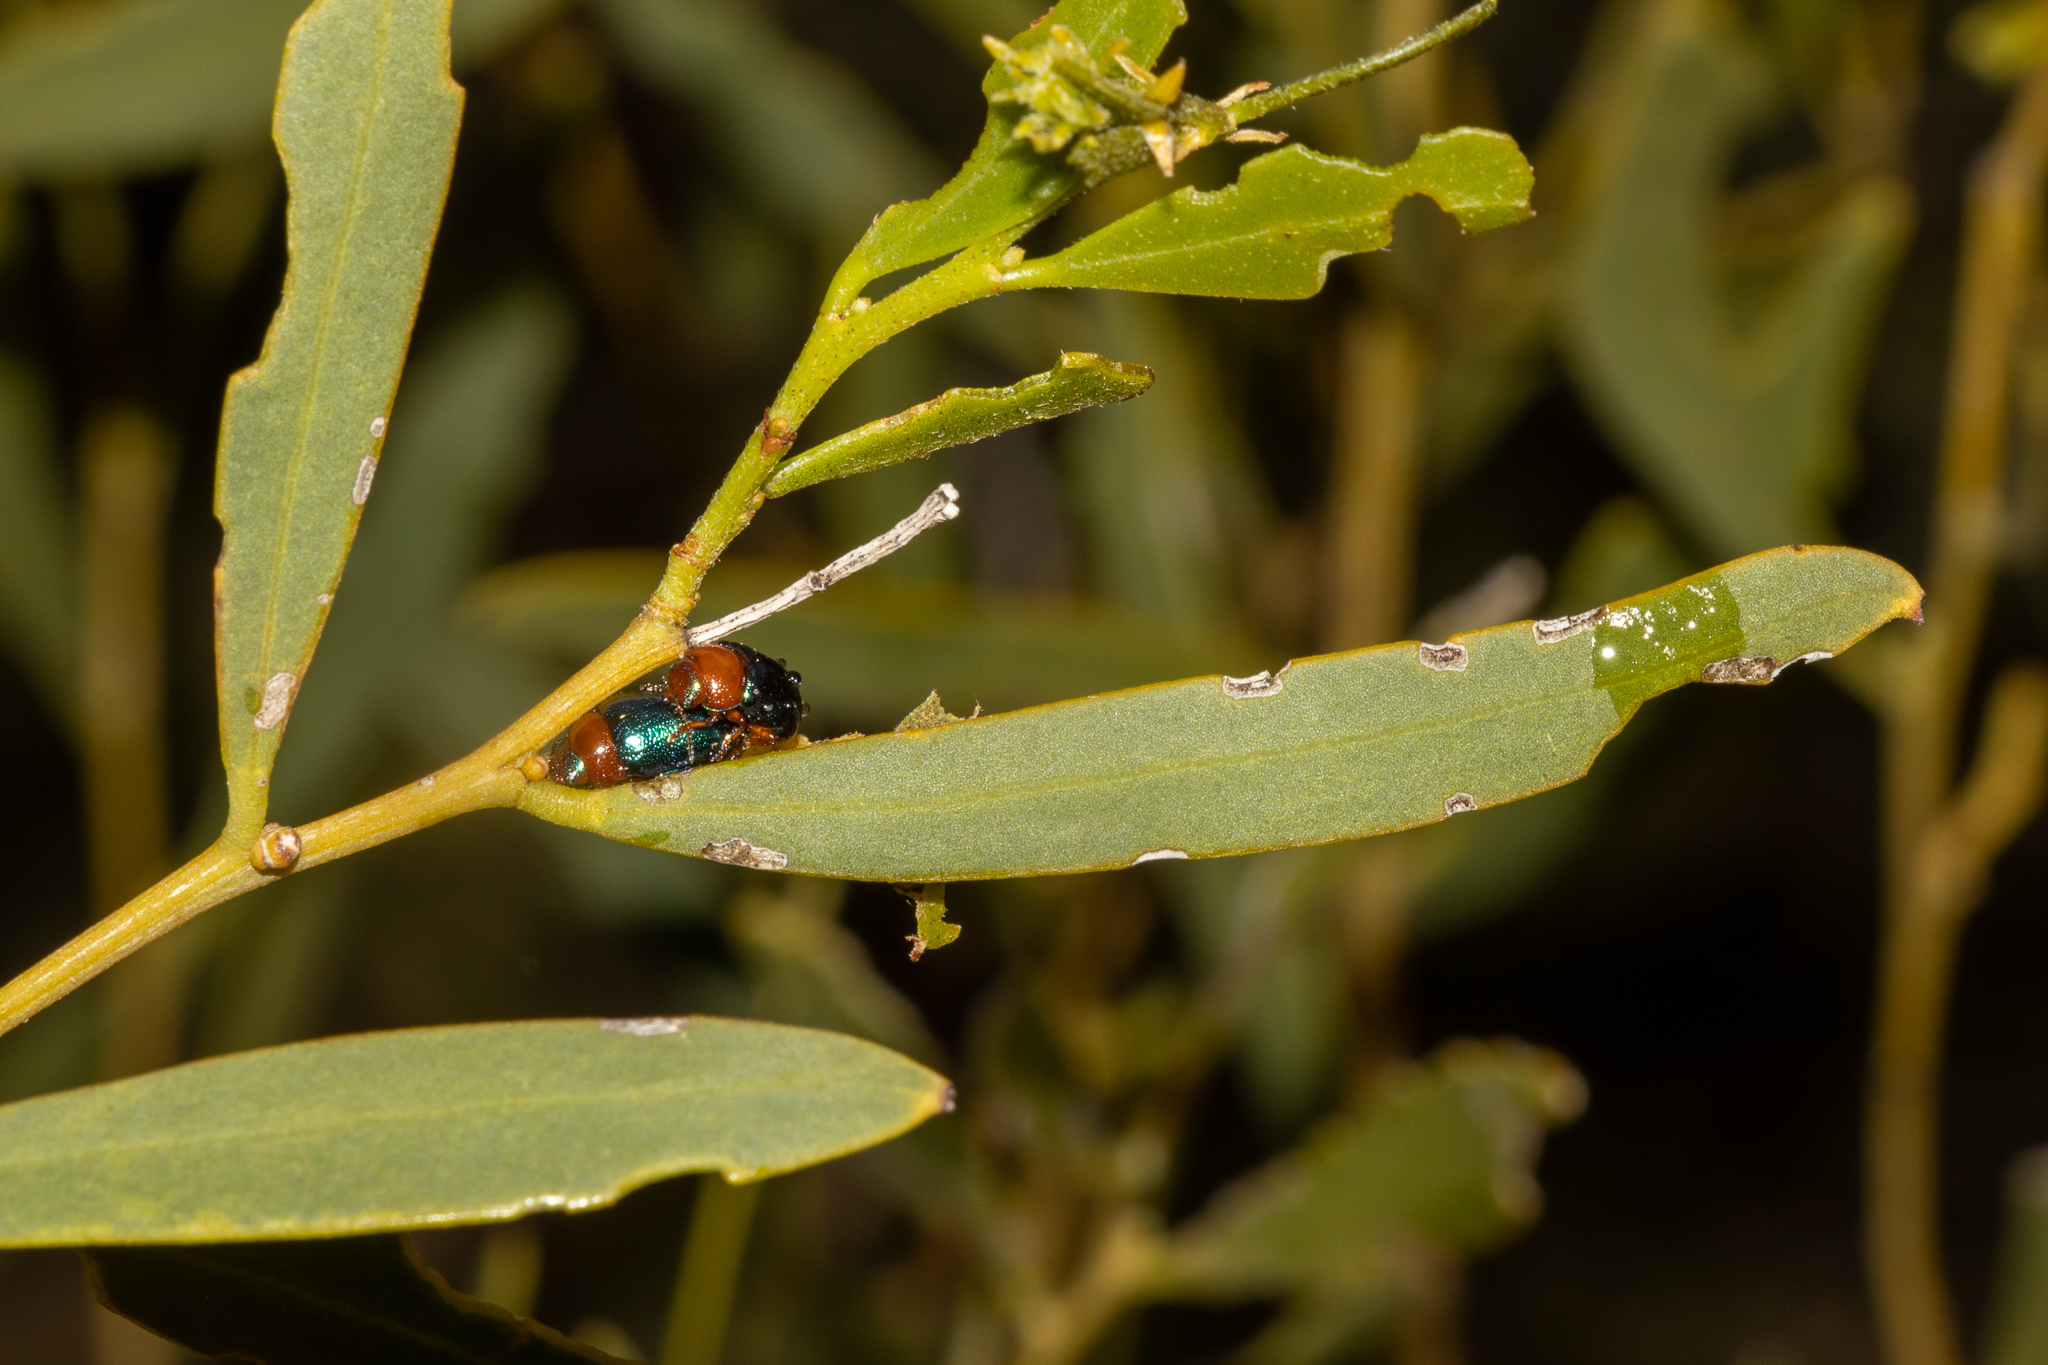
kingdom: Animalia
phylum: Arthropoda
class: Insecta
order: Coleoptera
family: Chrysomelidae
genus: Calomela
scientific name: Calomela
